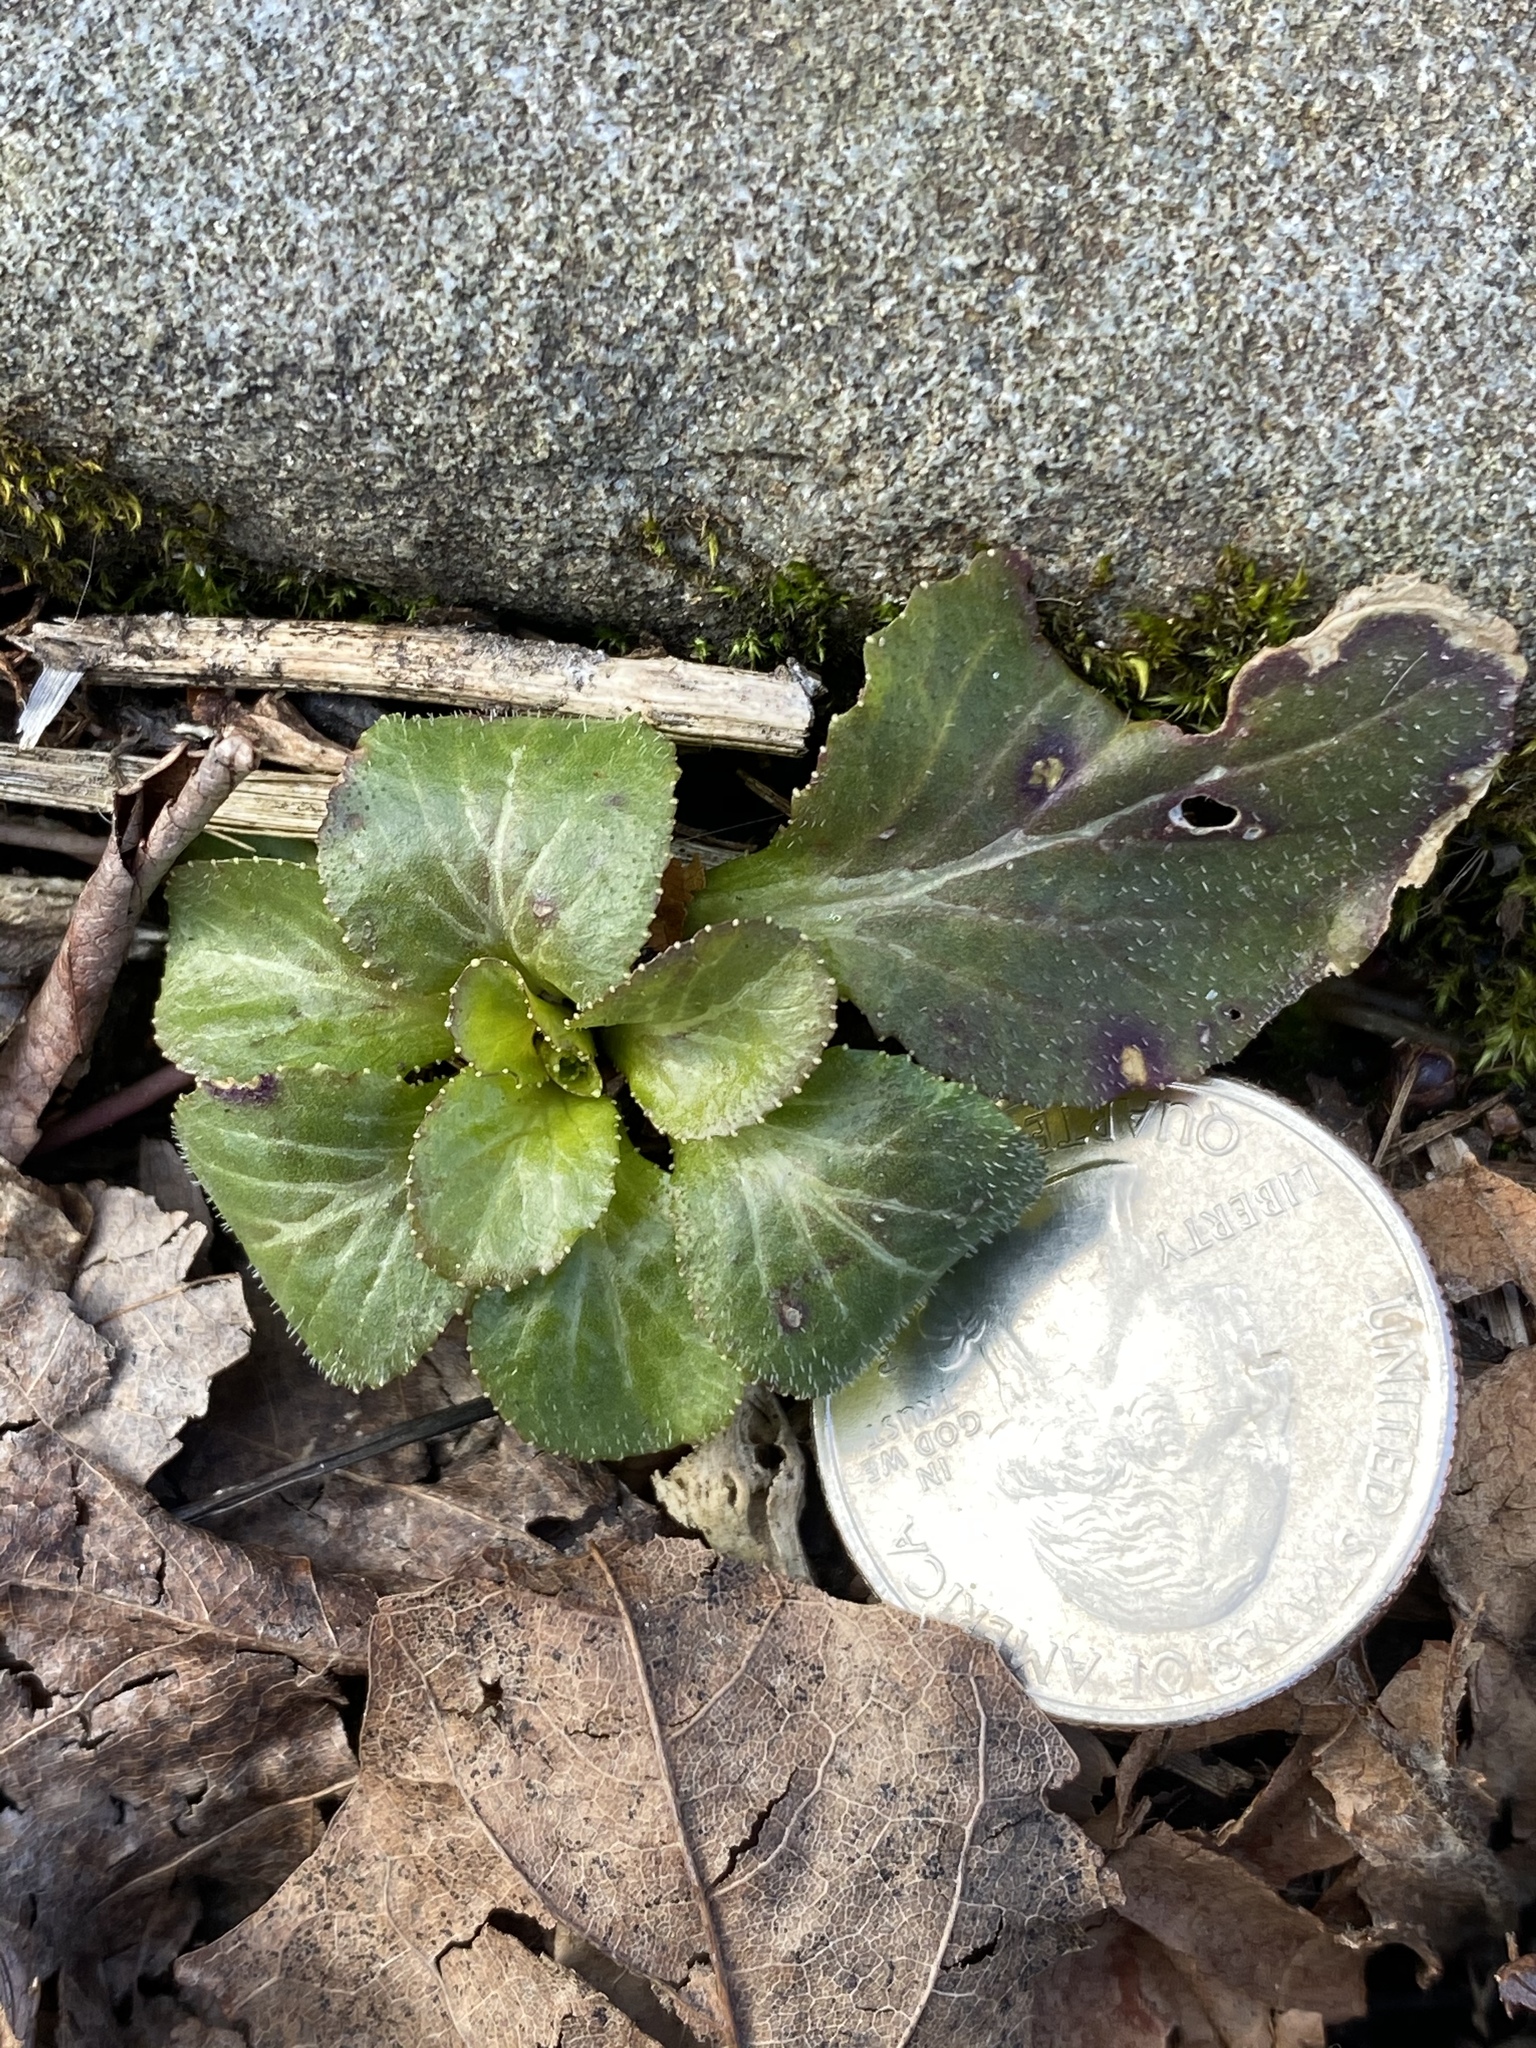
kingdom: Plantae
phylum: Tracheophyta
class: Magnoliopsida
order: Asterales
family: Campanulaceae
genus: Lobelia
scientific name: Lobelia inflata
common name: Indian tobacco
